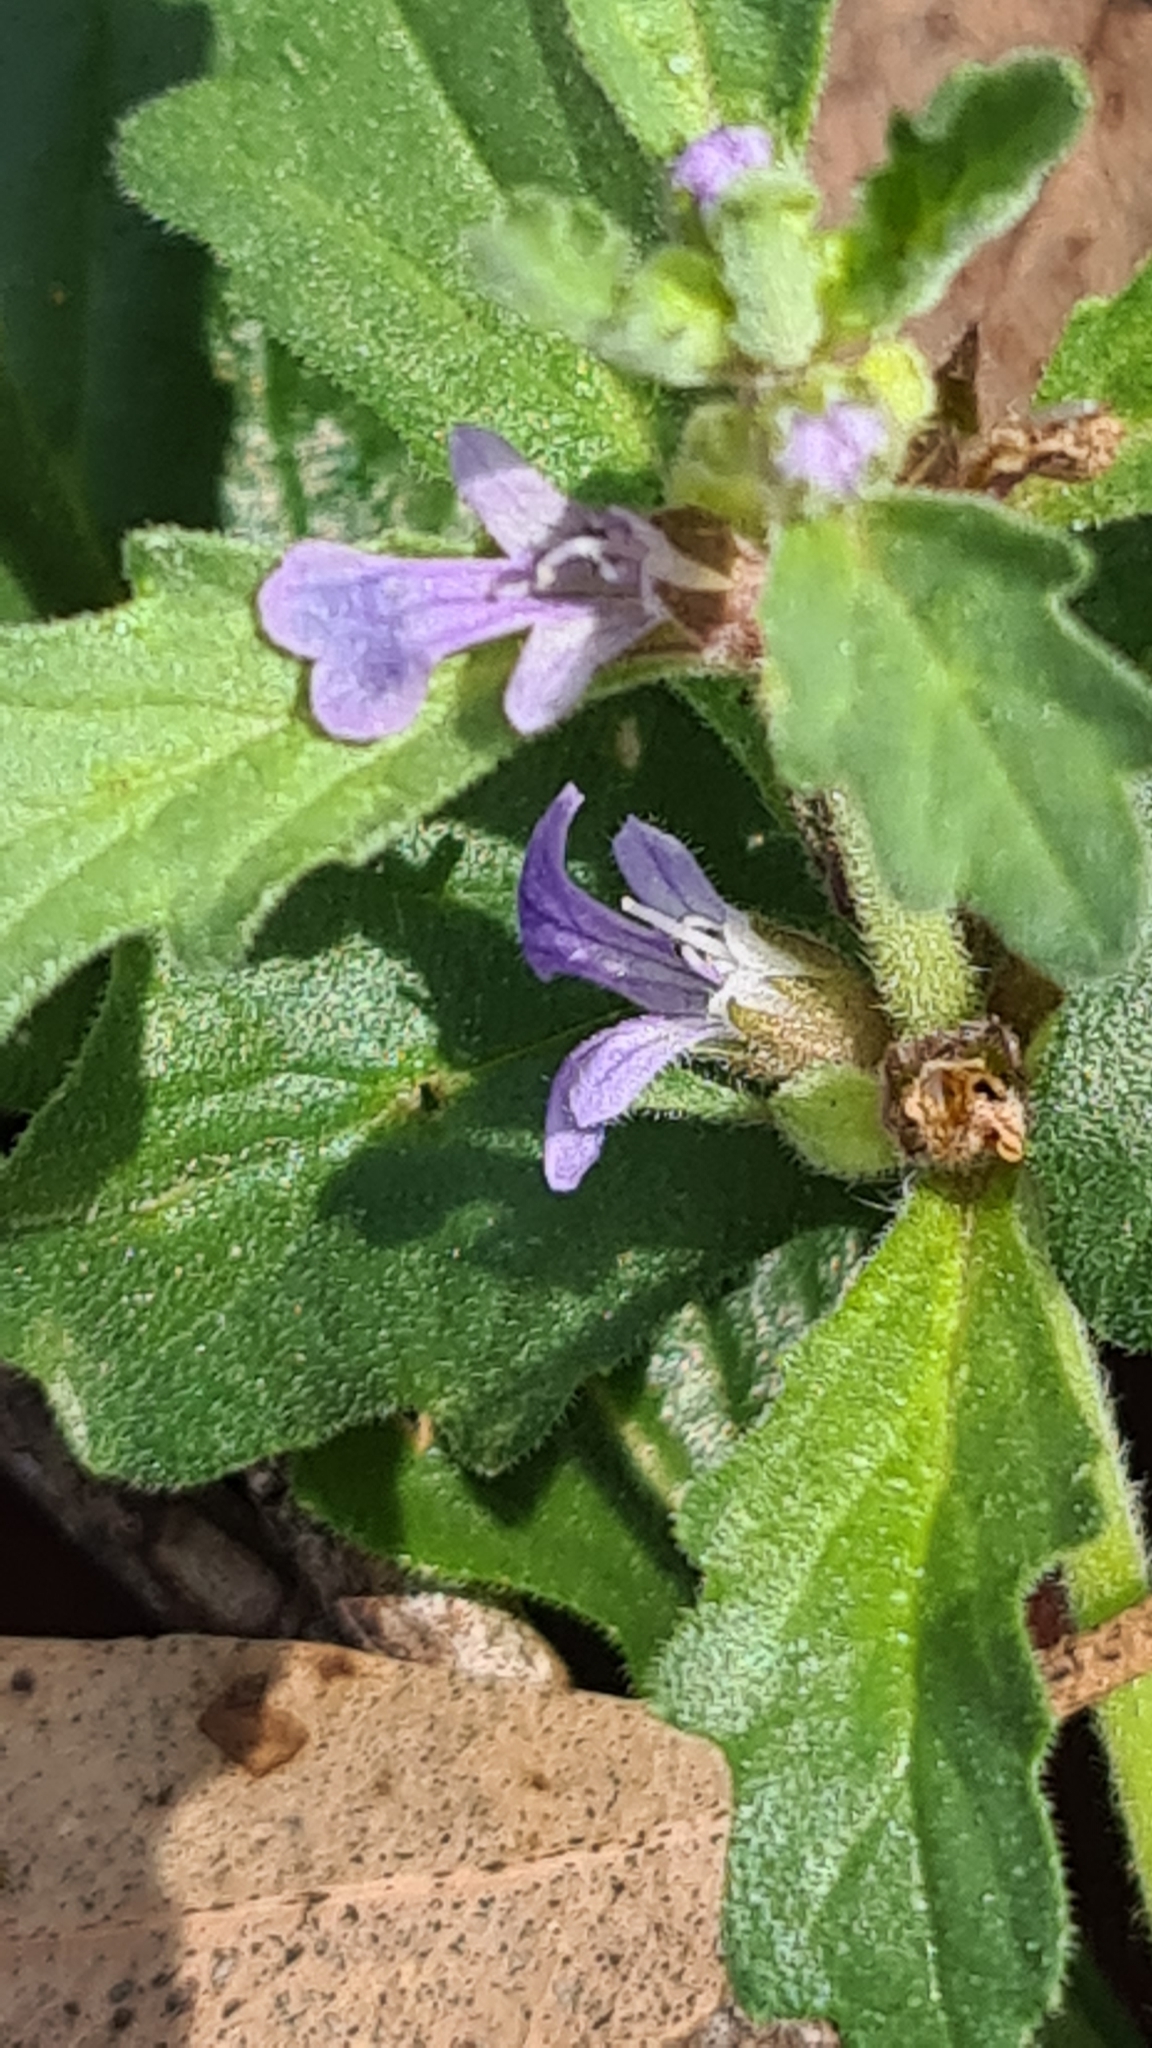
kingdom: Plantae
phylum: Tracheophyta
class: Magnoliopsida
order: Lamiales
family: Lamiaceae
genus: Ajuga
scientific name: Ajuga australis
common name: Australian bugle
